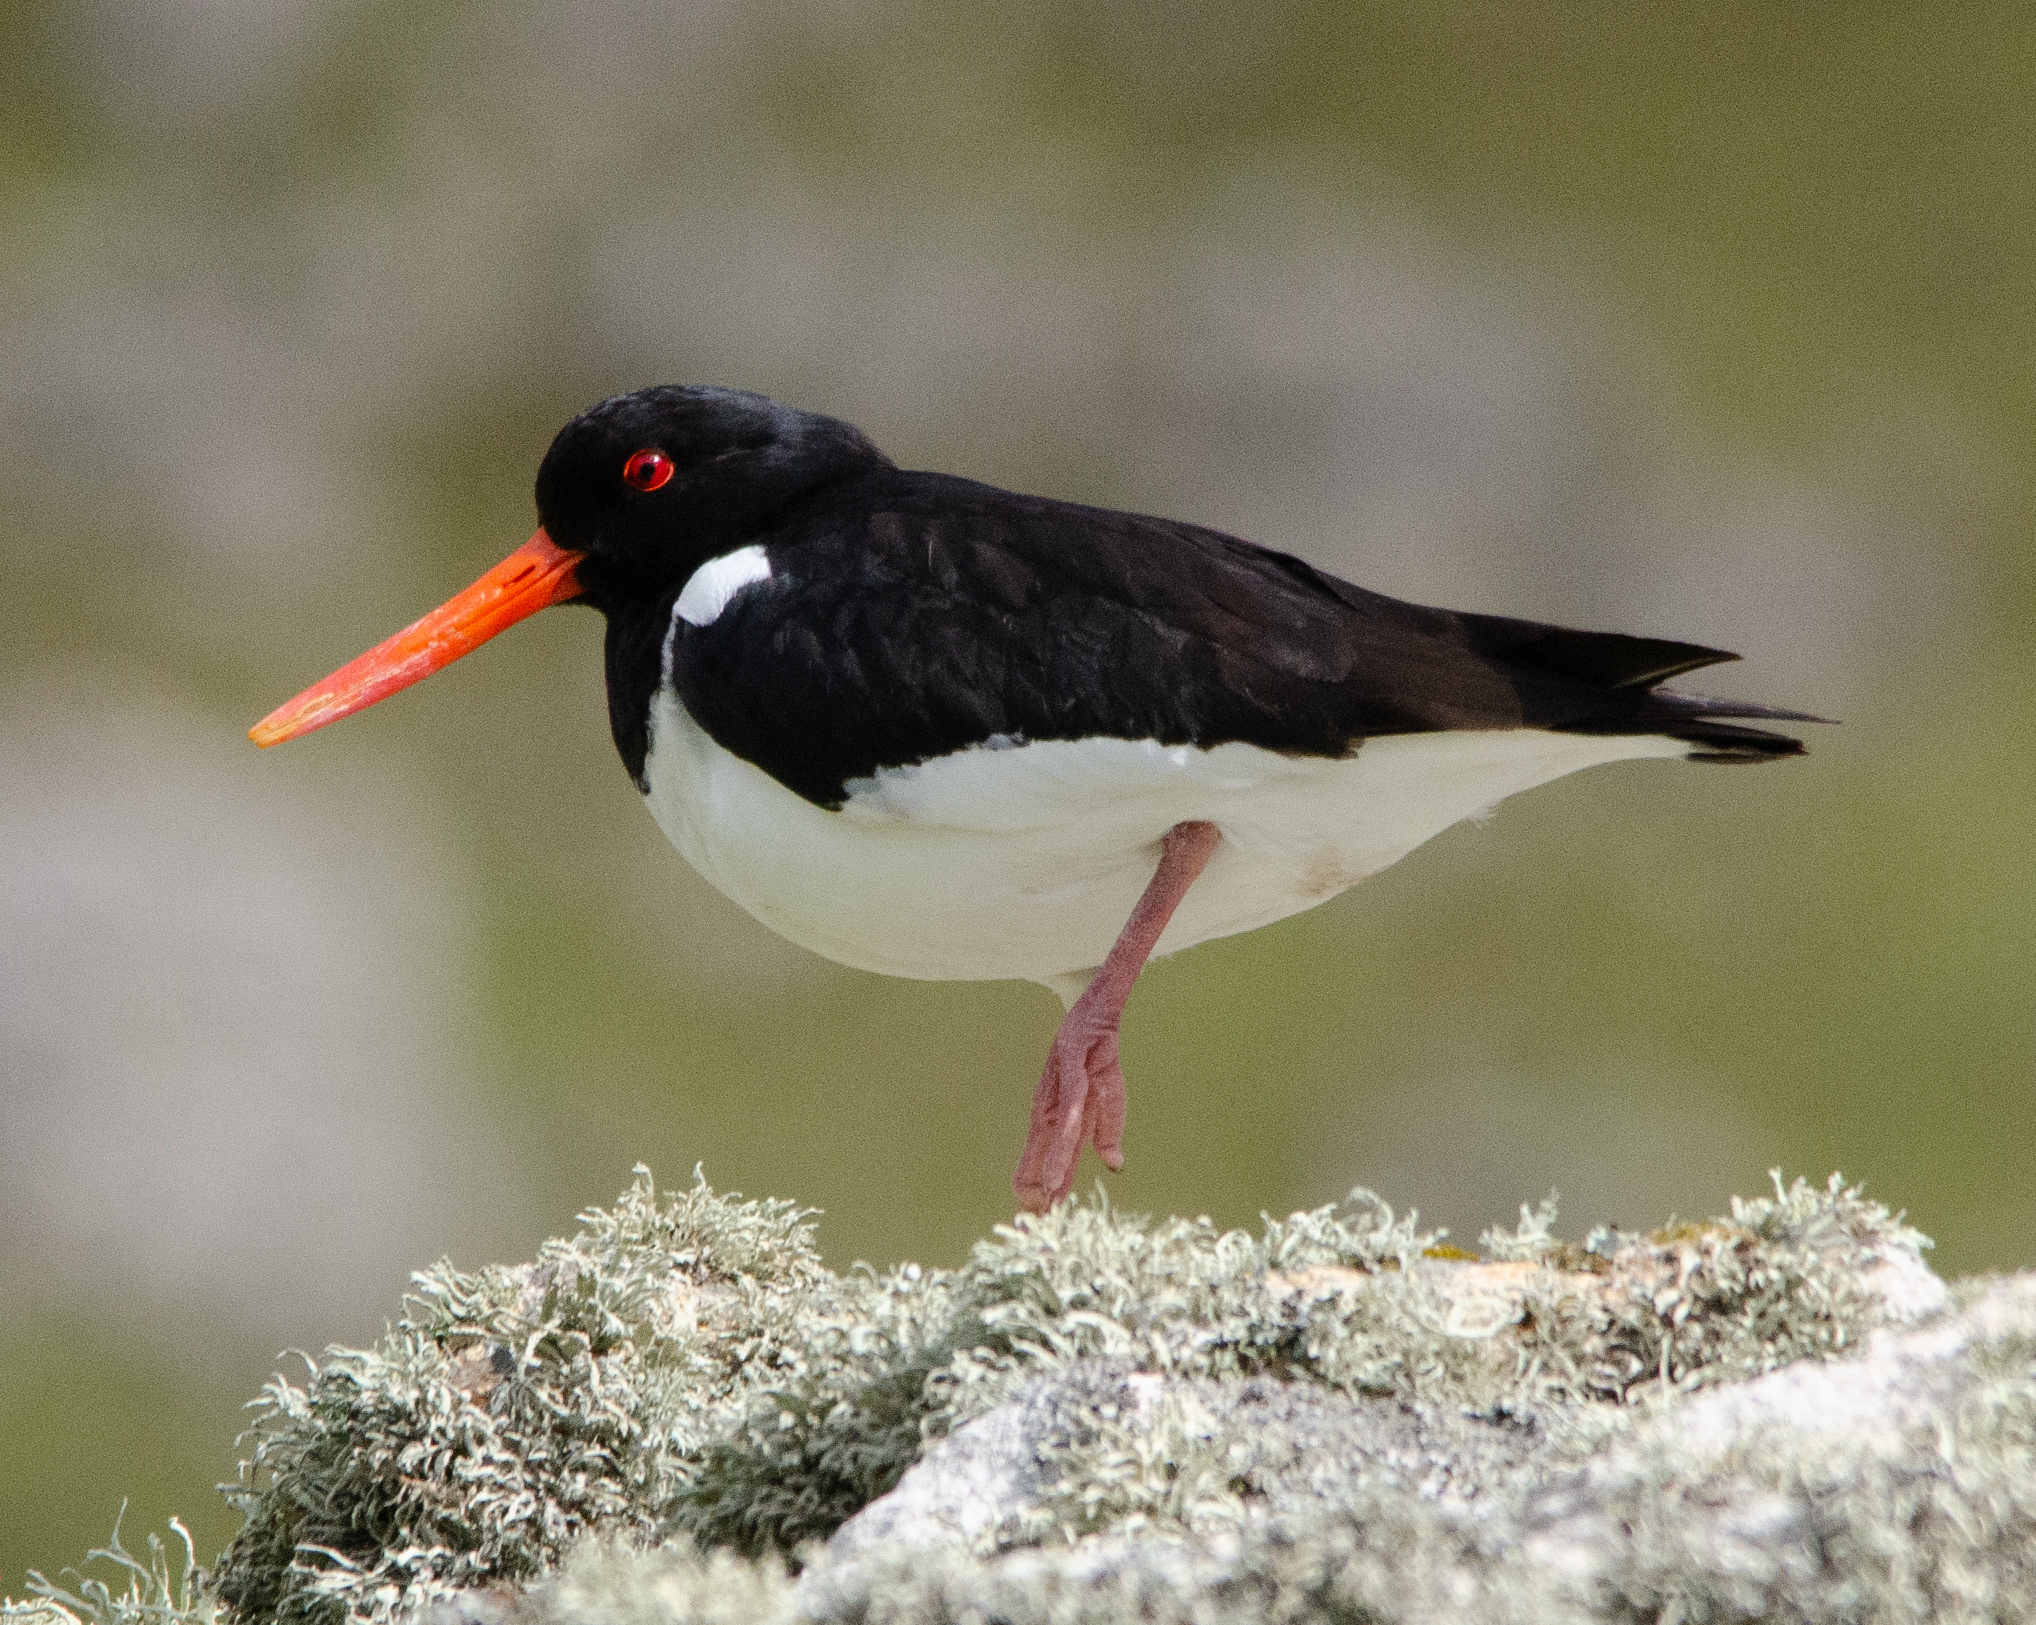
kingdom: Animalia
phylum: Chordata
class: Aves
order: Charadriiformes
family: Haematopodidae
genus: Haematopus
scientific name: Haematopus ostralegus
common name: Eurasian oystercatcher
